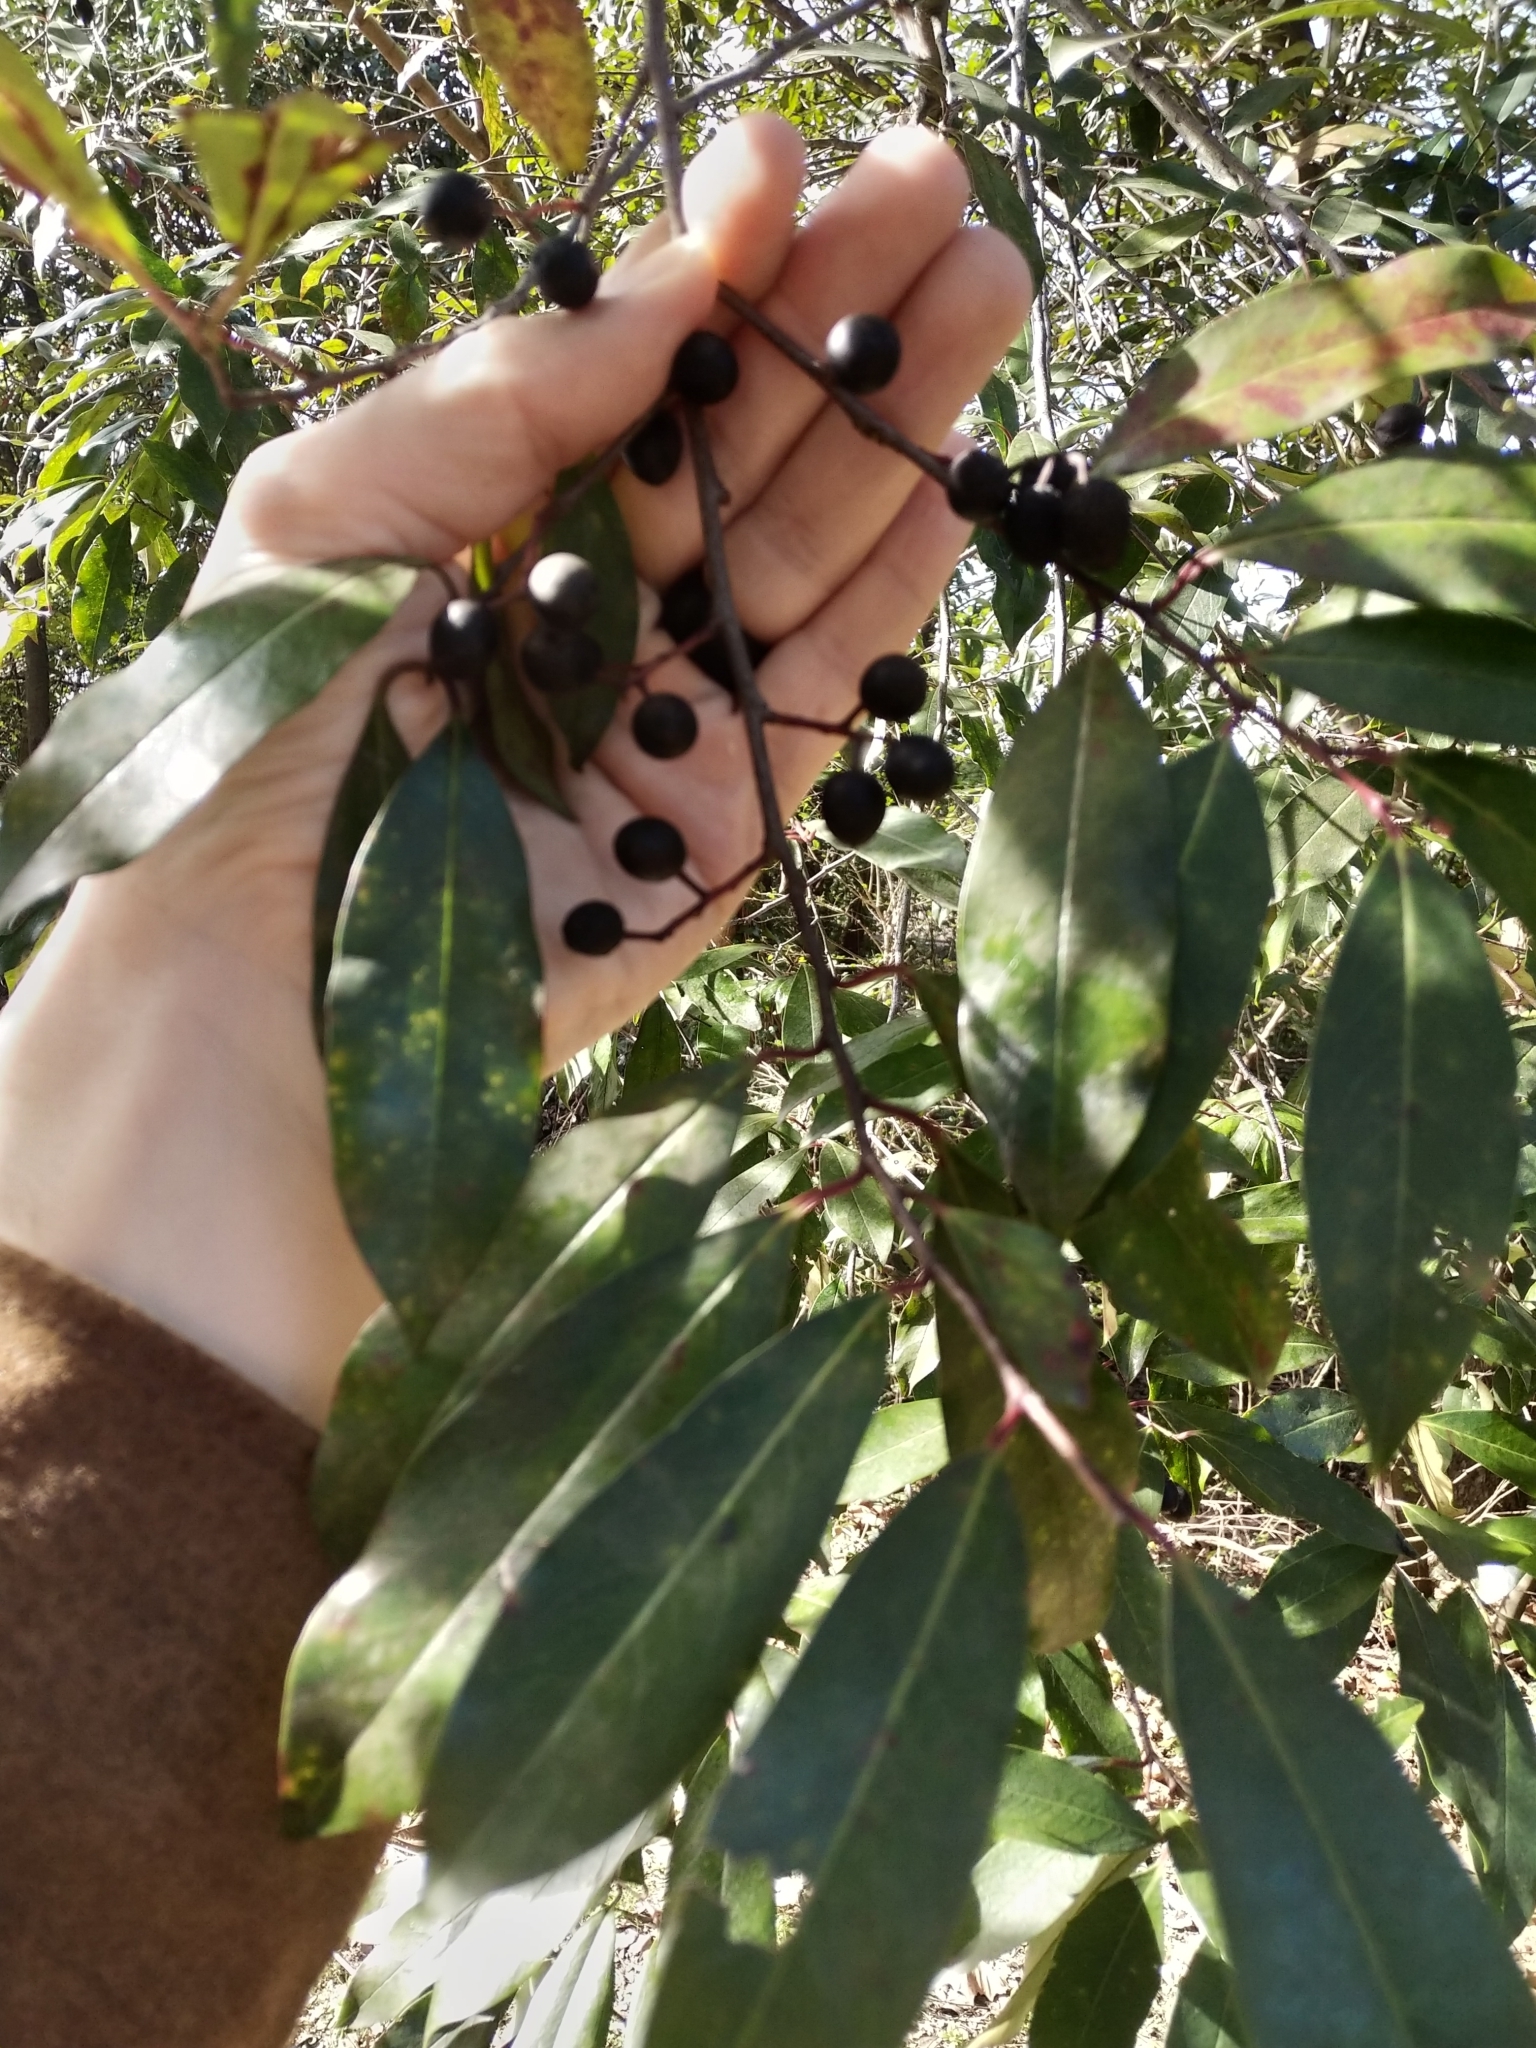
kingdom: Plantae
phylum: Tracheophyta
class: Magnoliopsida
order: Rosales
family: Rosaceae
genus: Prunus
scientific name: Prunus caroliniana
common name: Carolina laurel cherry
